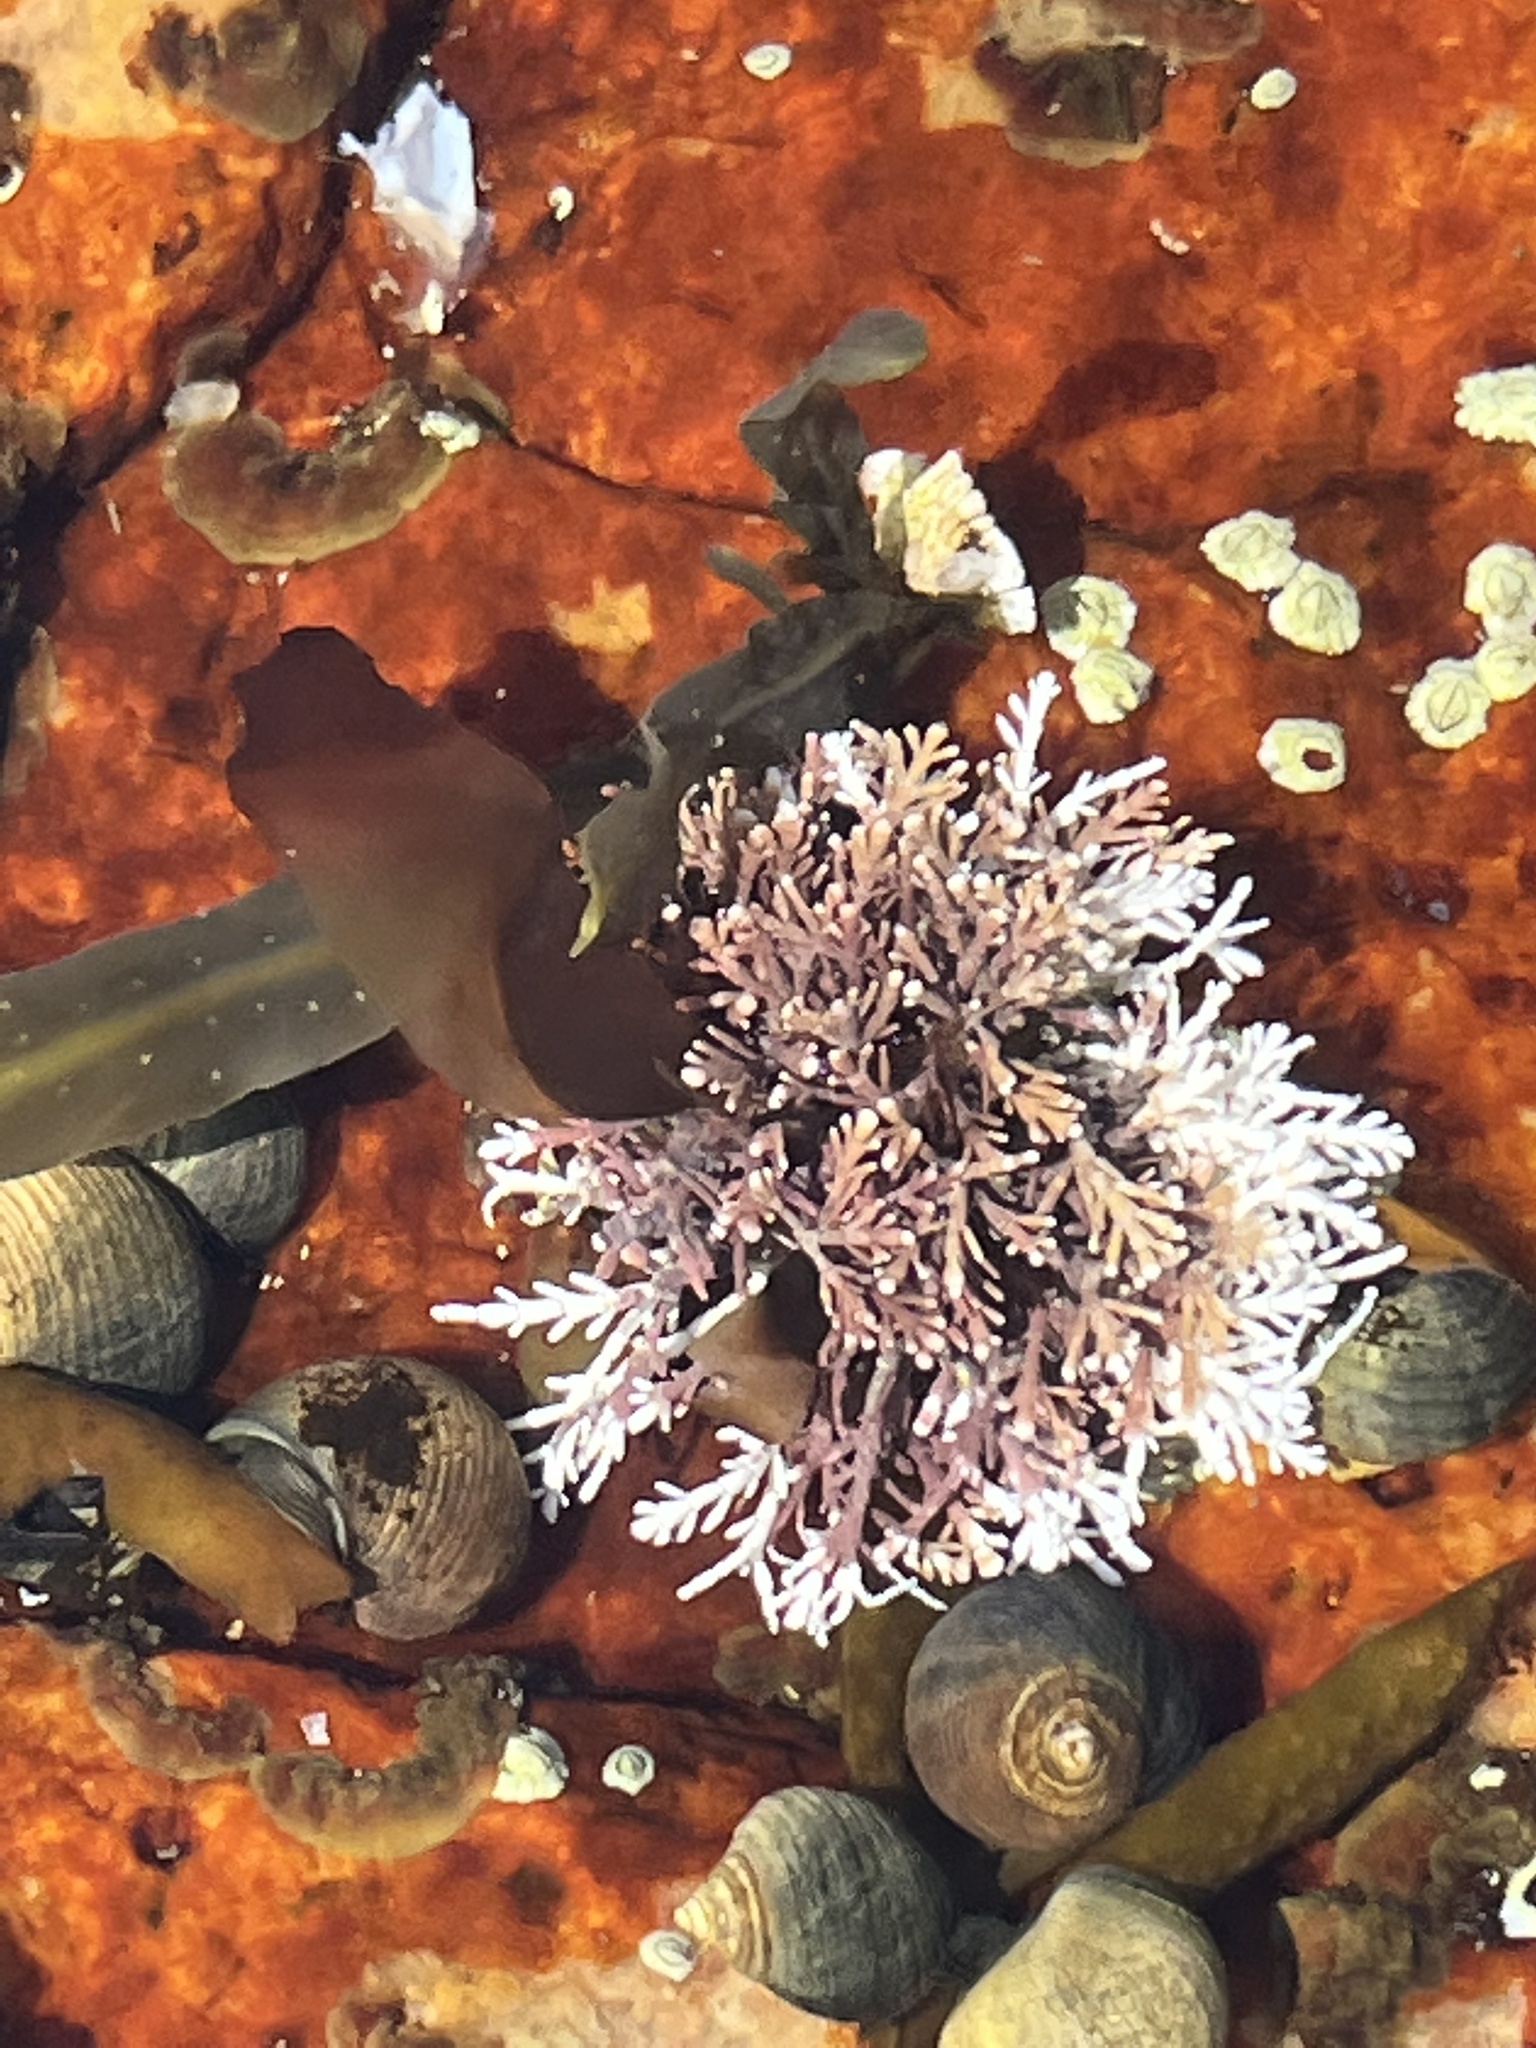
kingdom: Plantae
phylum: Rhodophyta
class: Florideophyceae
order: Corallinales
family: Corallinaceae
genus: Corallina
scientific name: Corallina officinalis
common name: Coral weed
